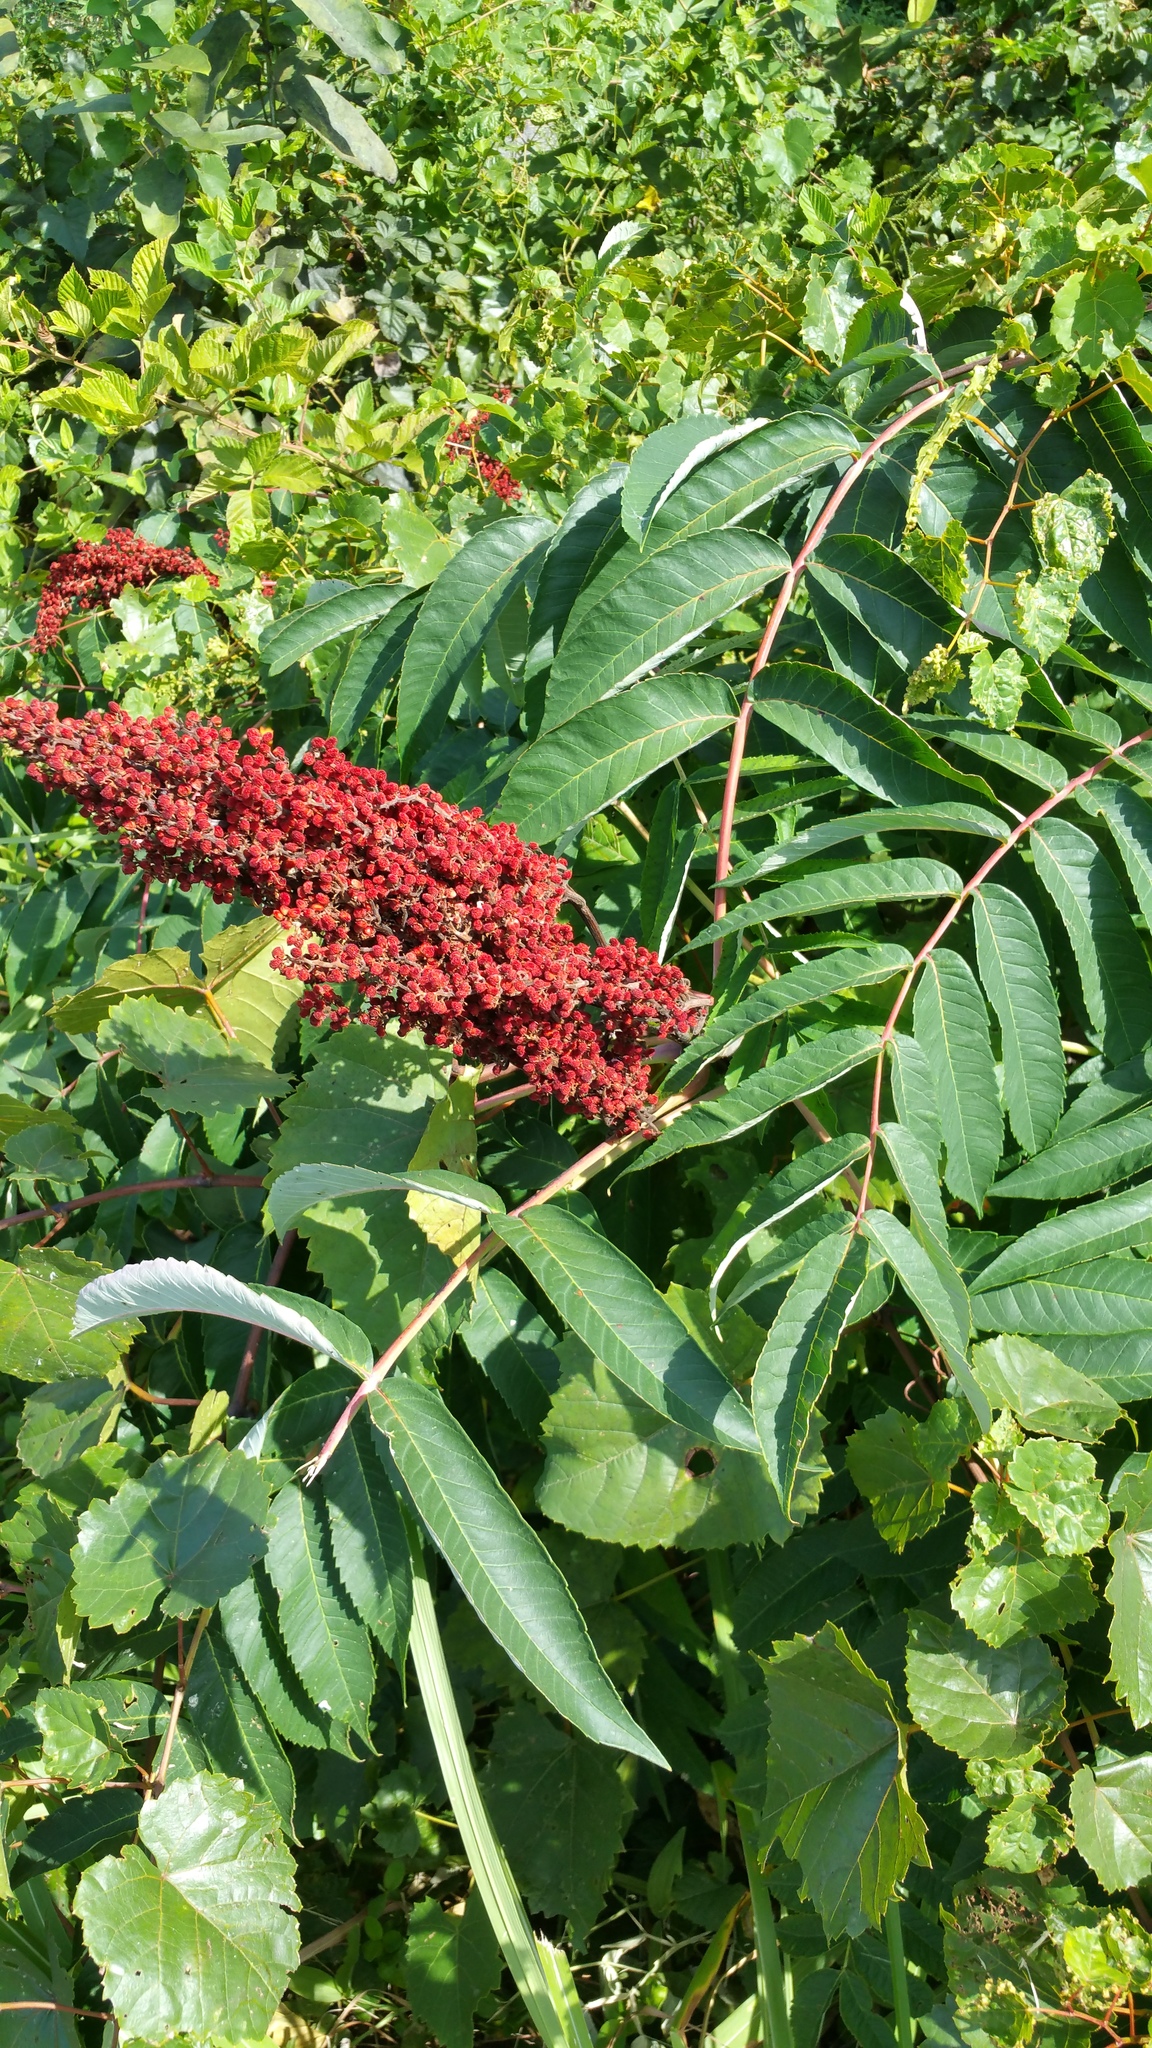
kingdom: Plantae
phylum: Tracheophyta
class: Magnoliopsida
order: Sapindales
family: Anacardiaceae
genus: Rhus
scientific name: Rhus glabra
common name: Scarlet sumac
